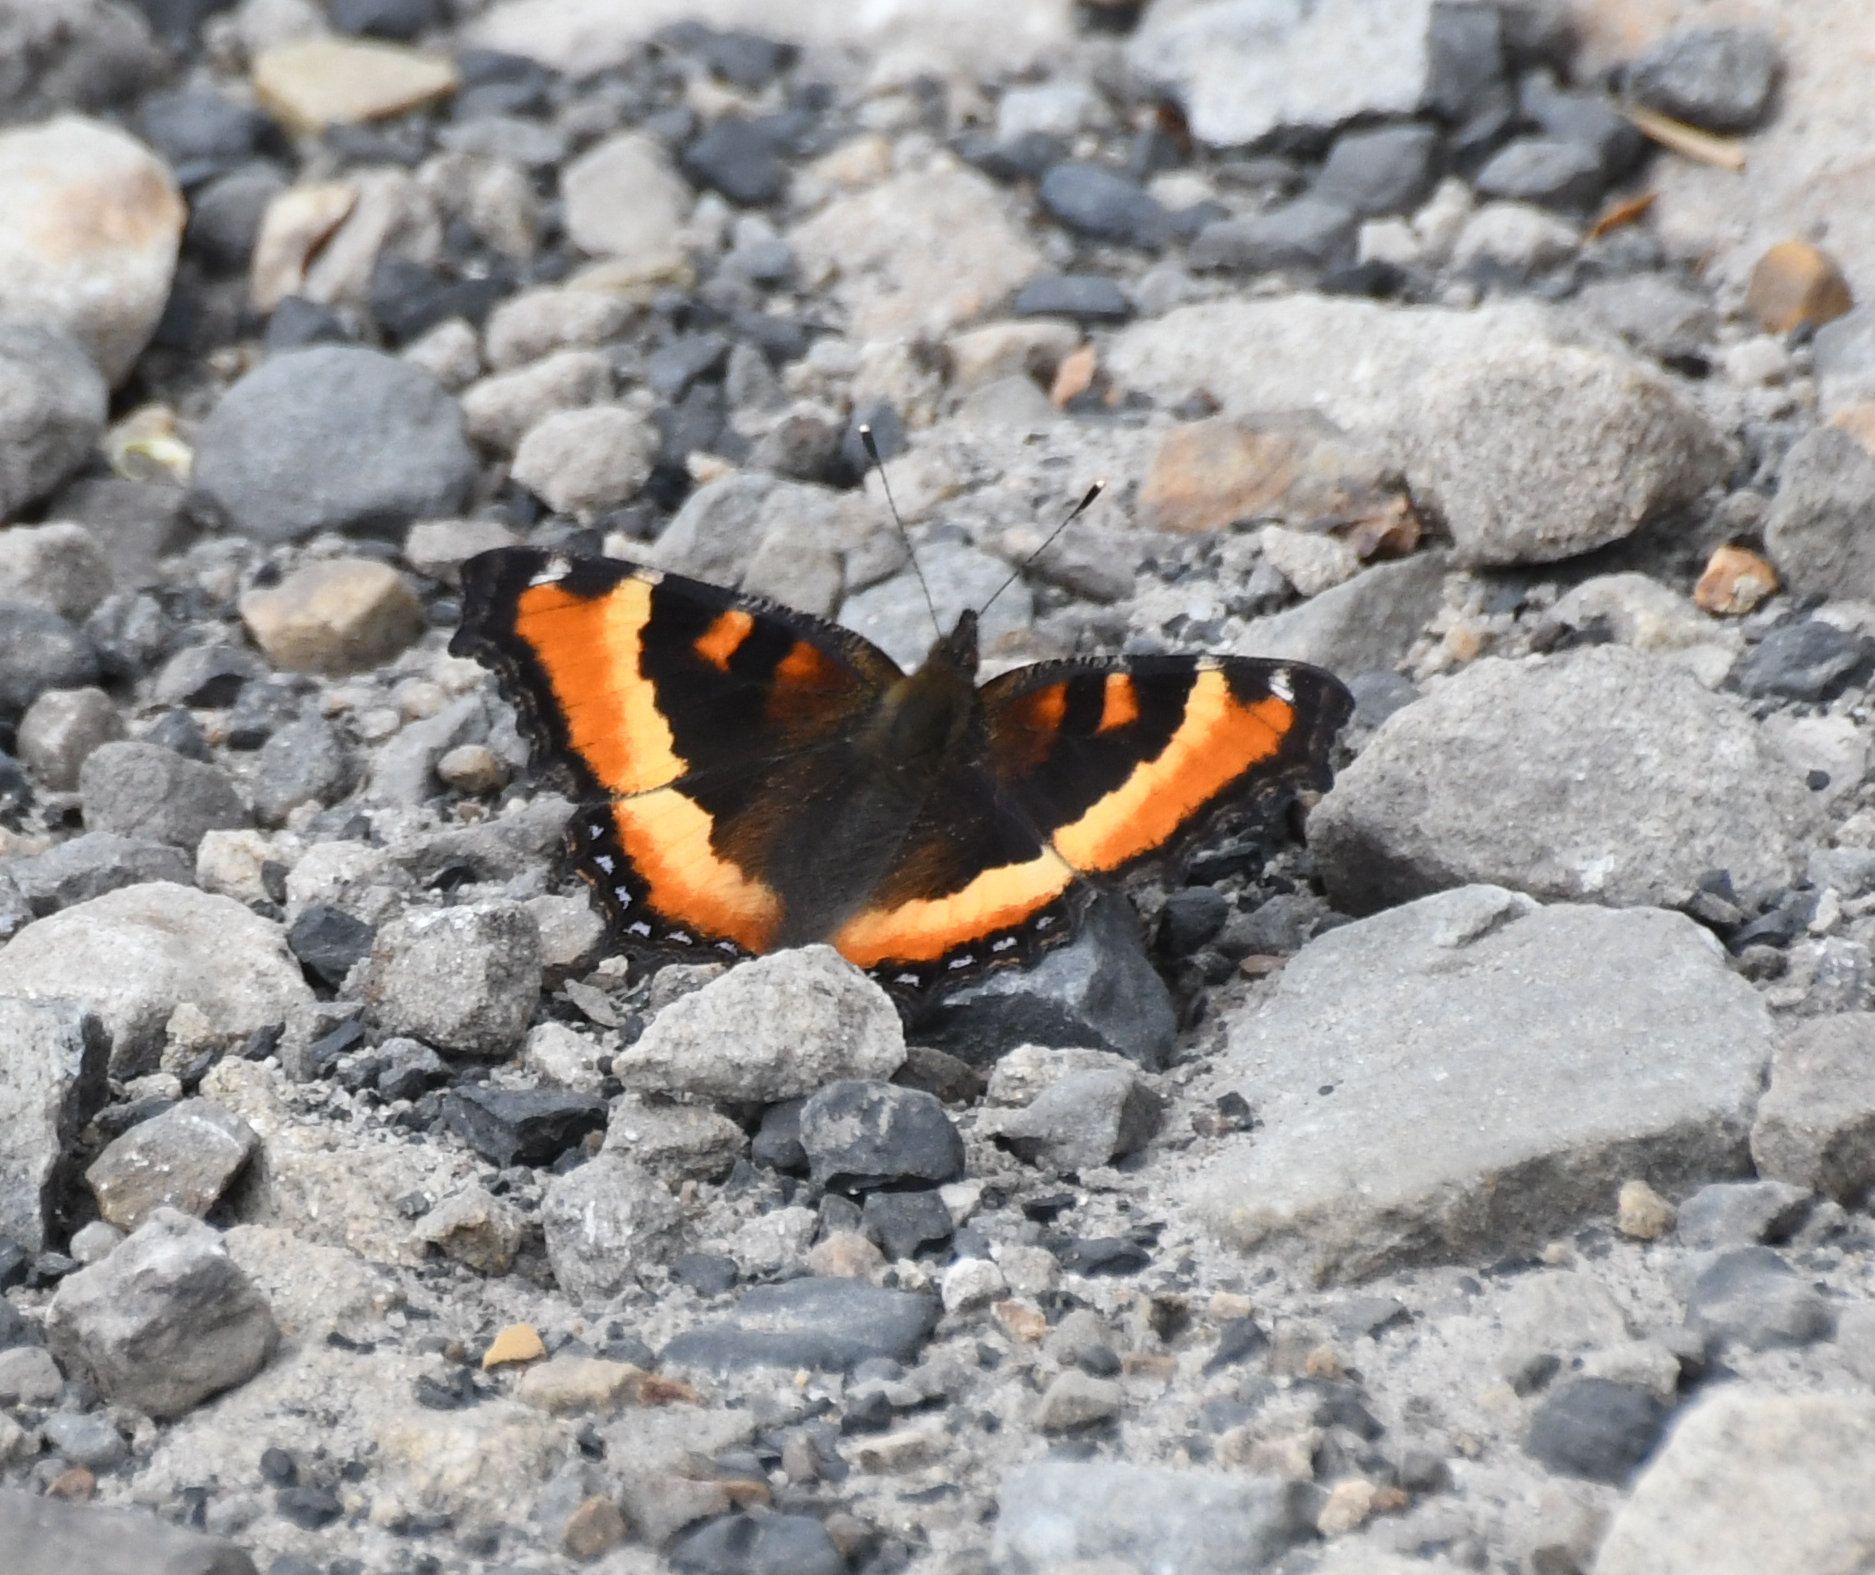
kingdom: Animalia
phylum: Arthropoda
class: Insecta
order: Lepidoptera
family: Nymphalidae
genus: Aglais
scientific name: Aglais milberti
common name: Milbert's tortoiseshell
